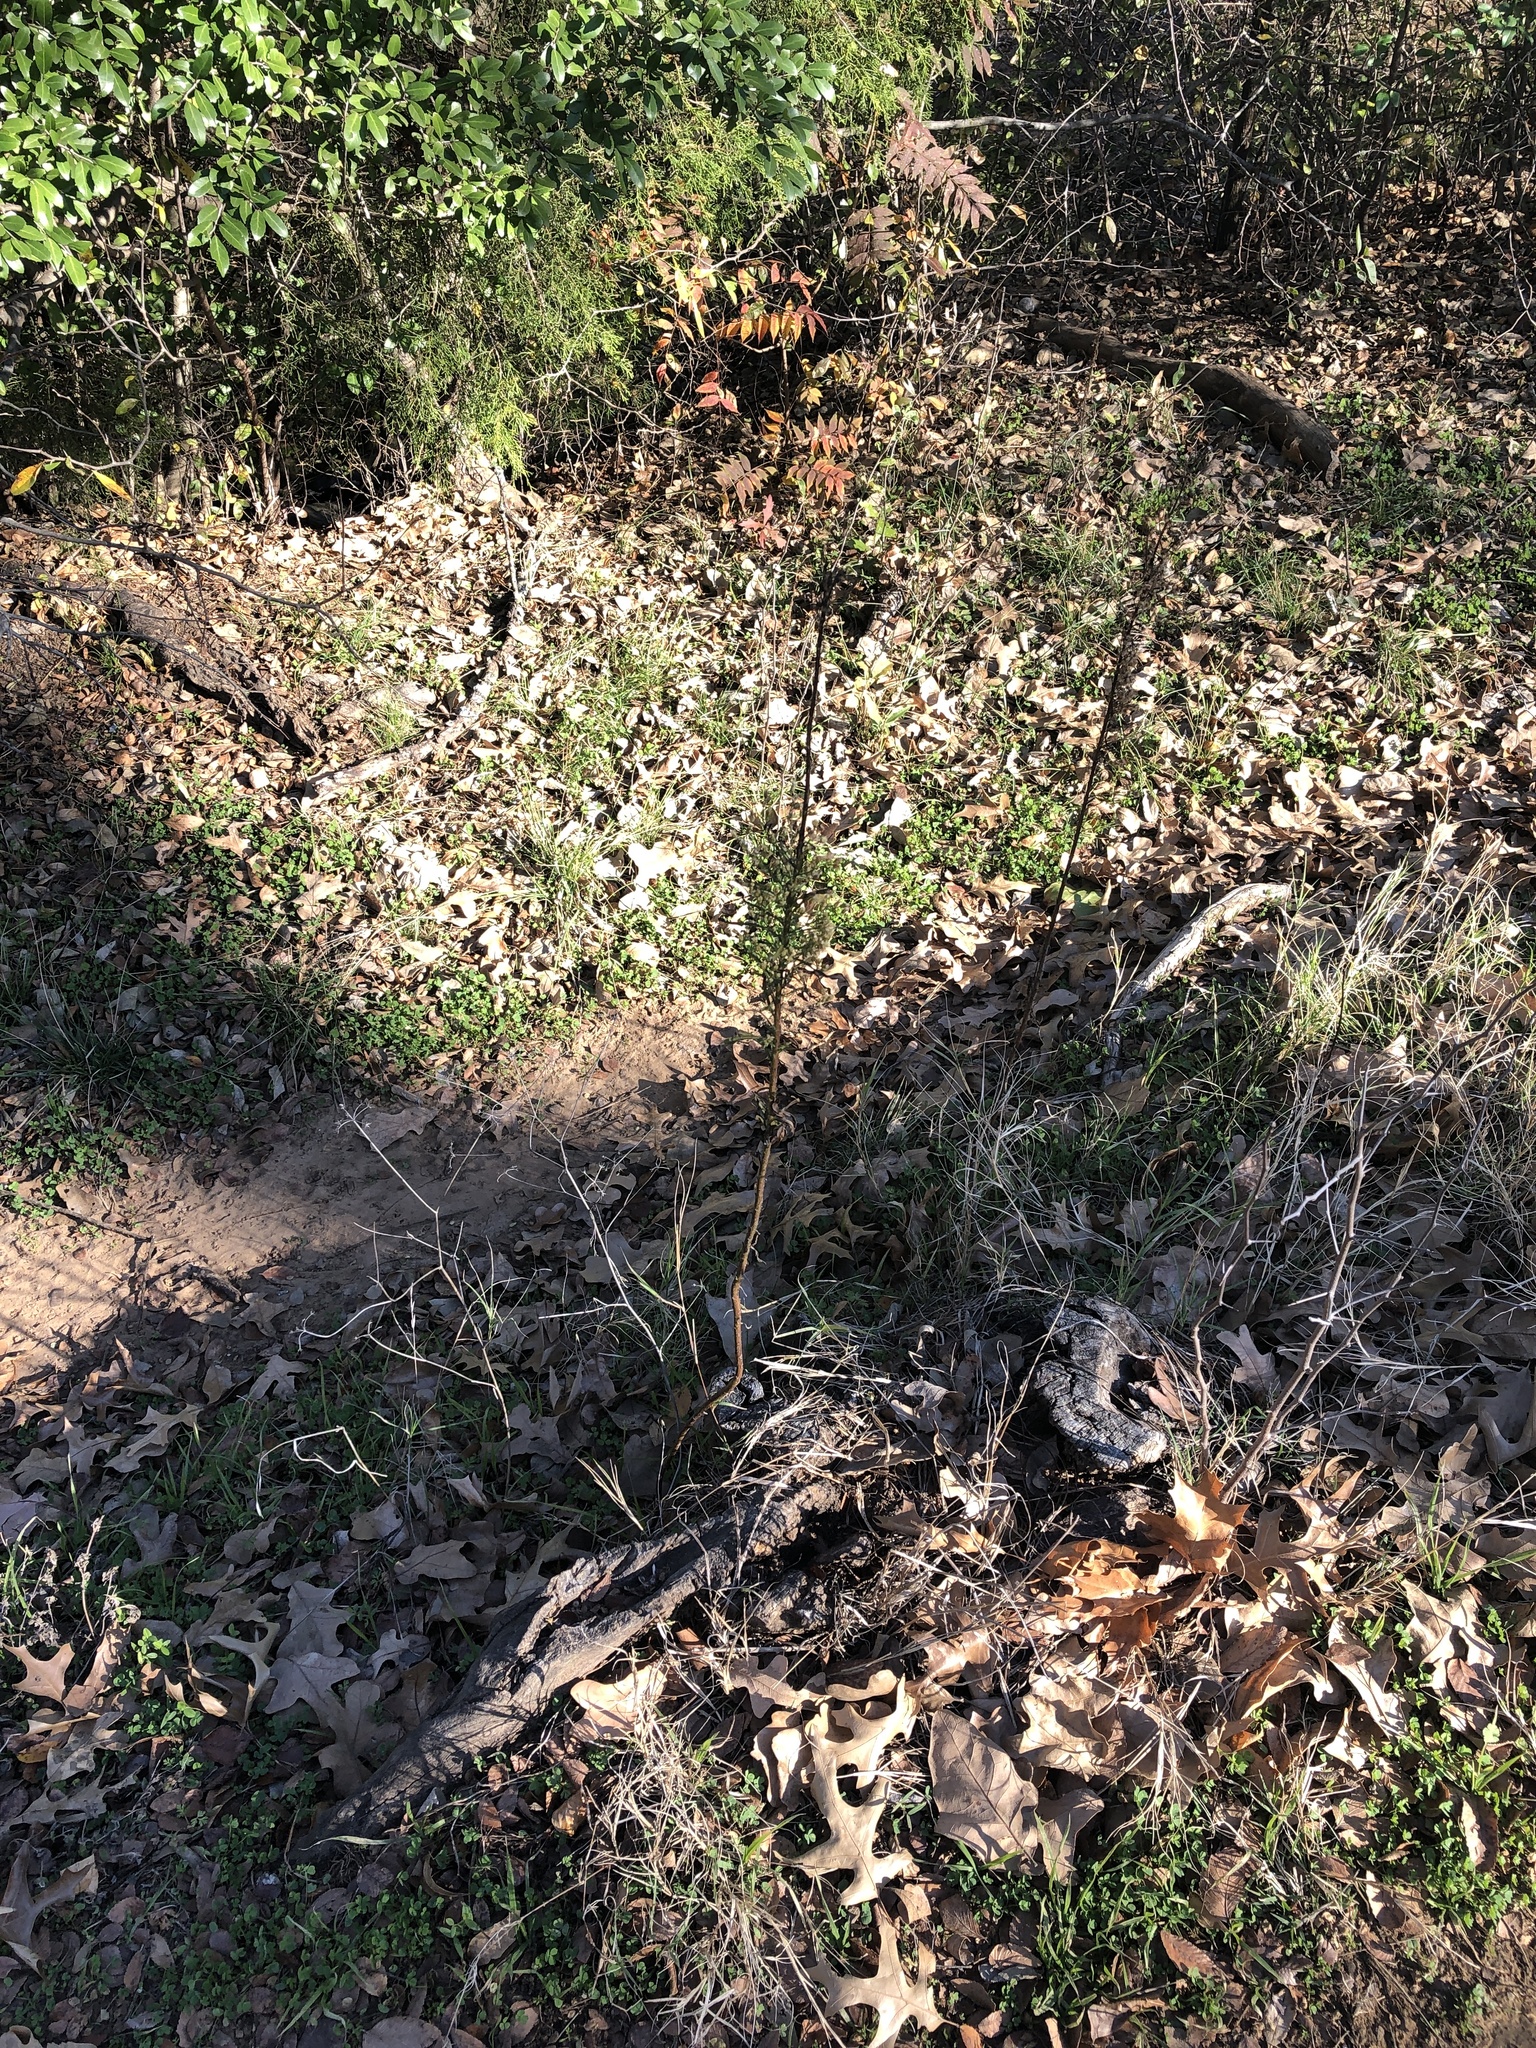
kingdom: Plantae
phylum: Tracheophyta
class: Magnoliopsida
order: Asterales
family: Asteraceae
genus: Erigeron
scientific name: Erigeron canadensis
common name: Canadian fleabane
